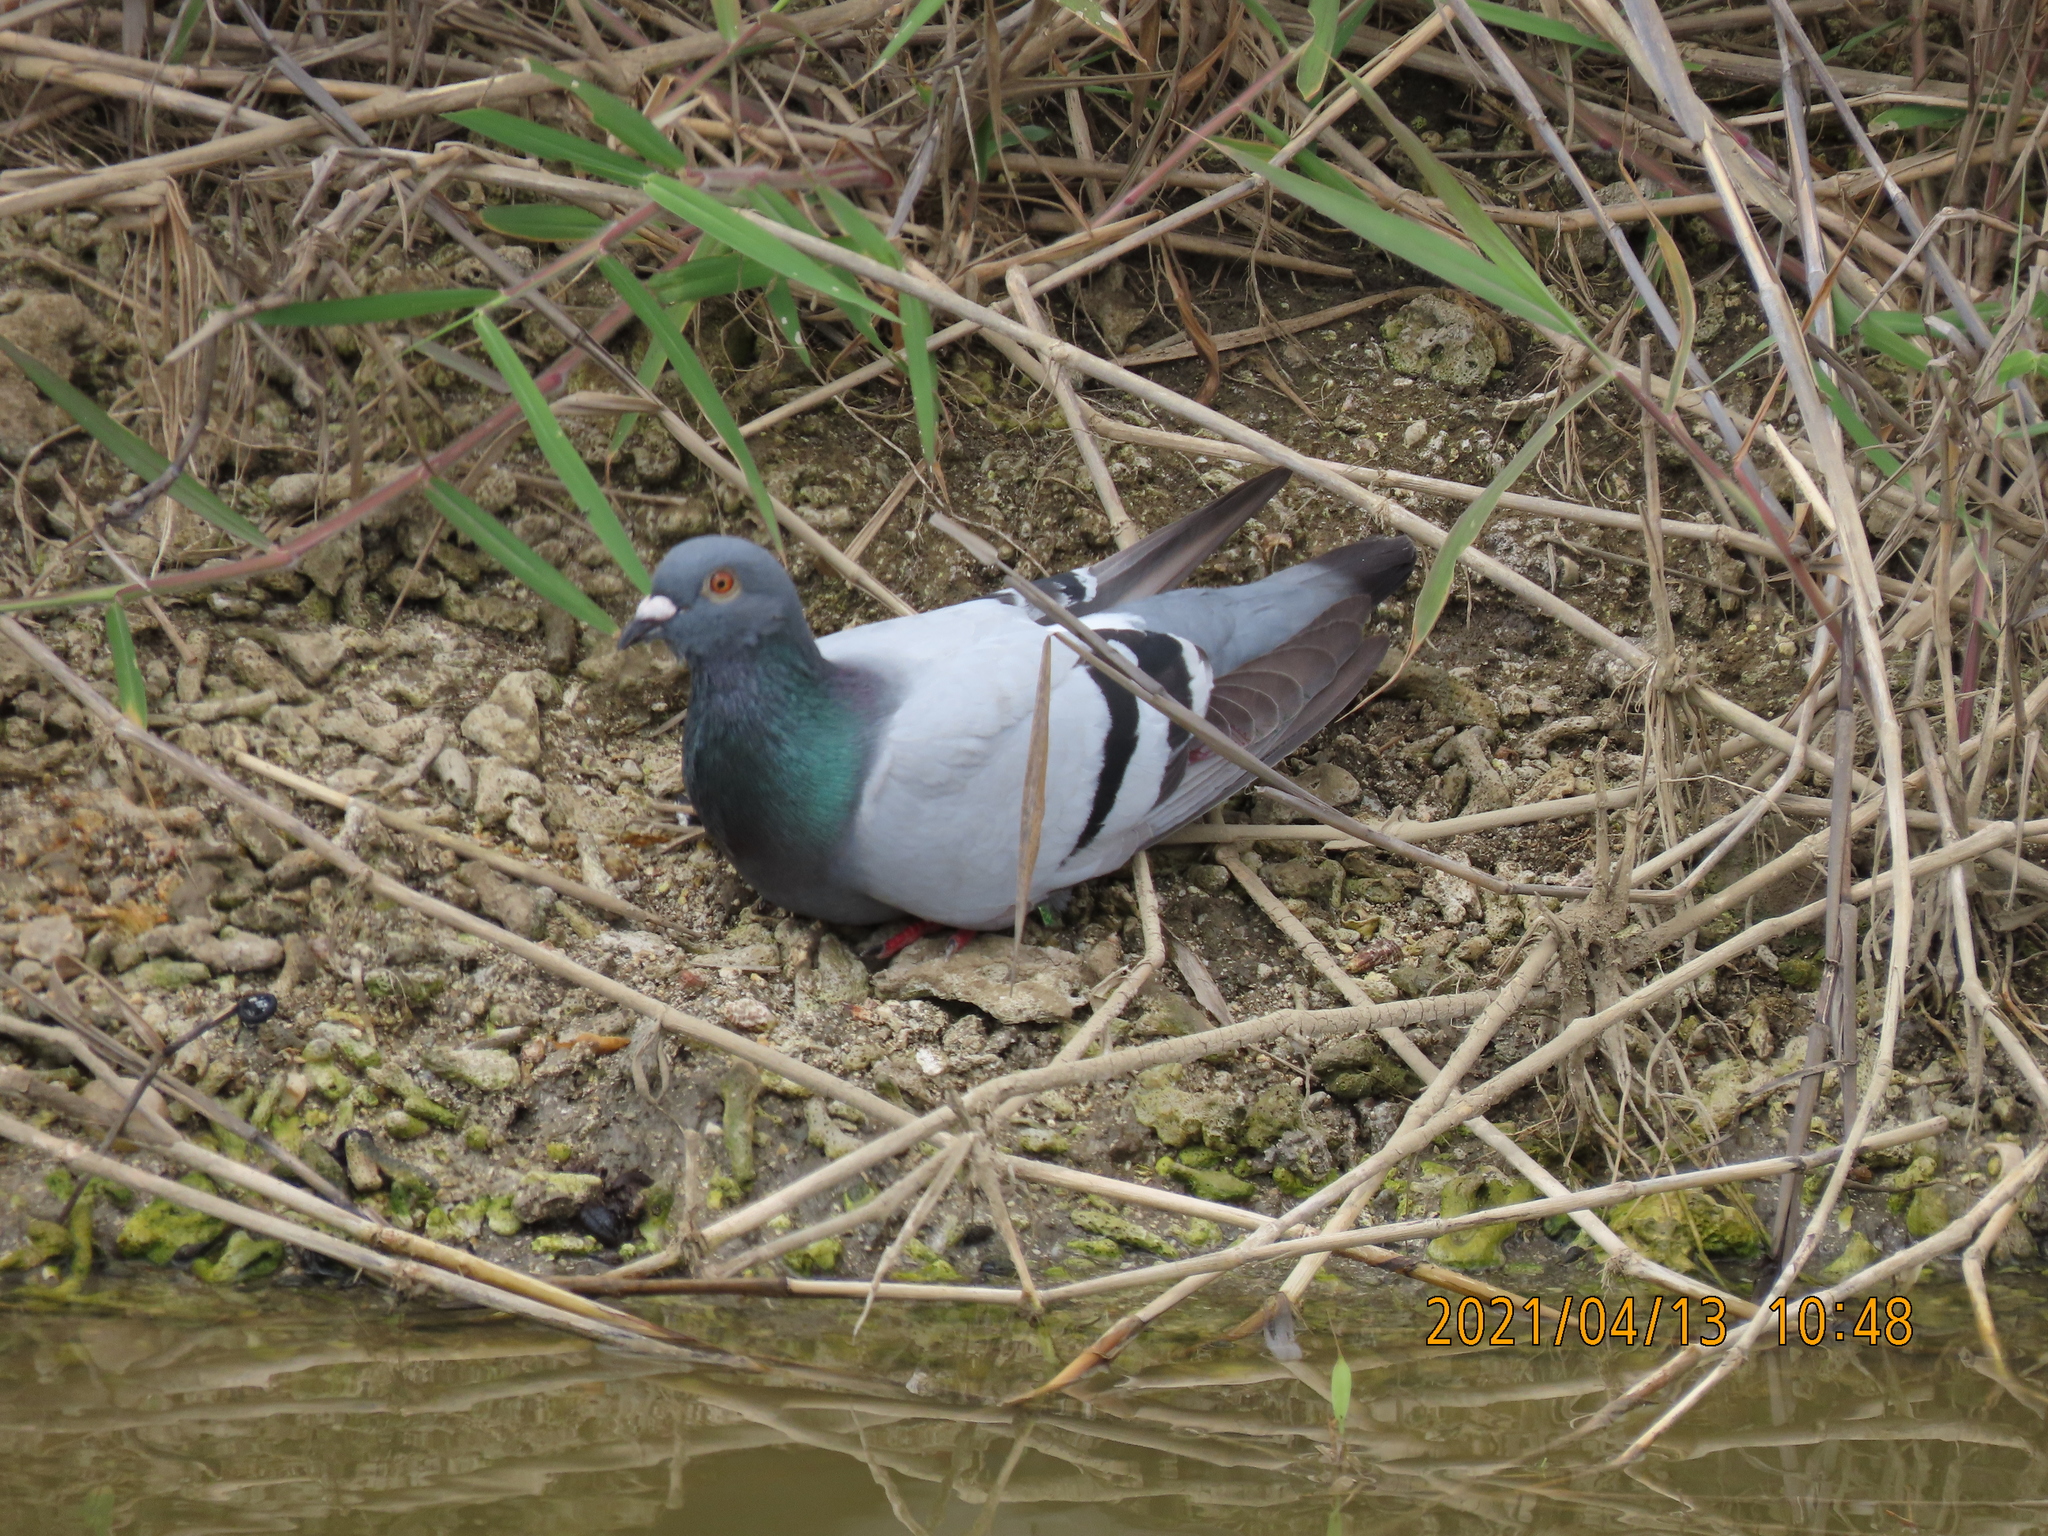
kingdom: Animalia
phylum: Chordata
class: Aves
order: Columbiformes
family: Columbidae
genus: Columba
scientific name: Columba livia
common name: Rock pigeon
